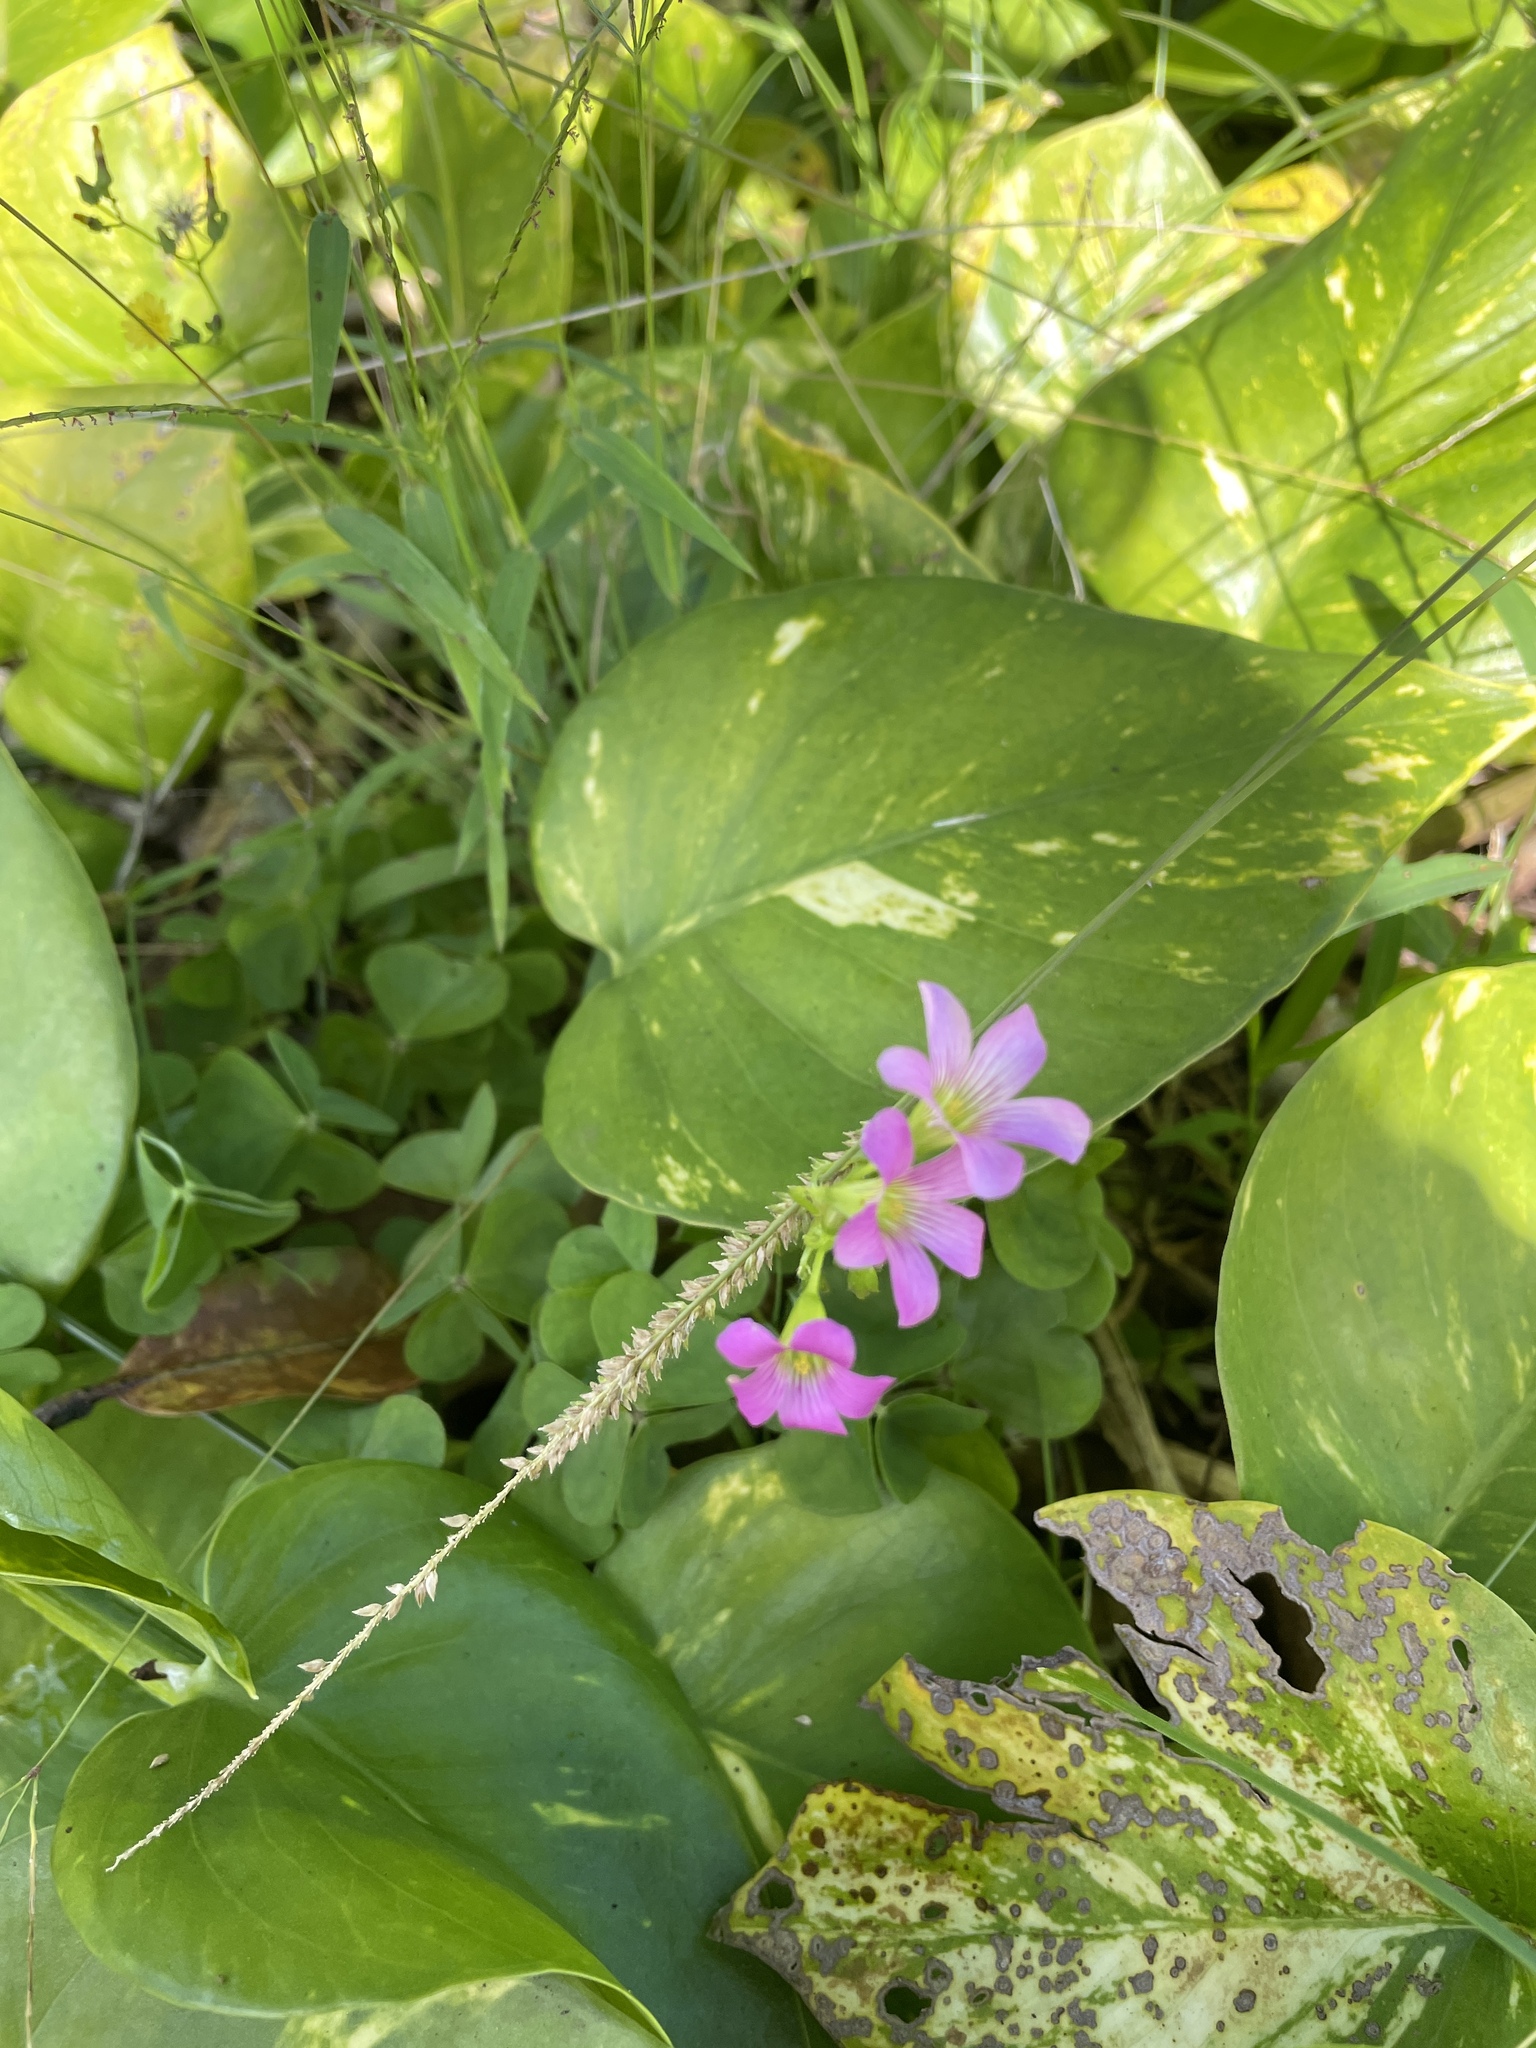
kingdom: Plantae
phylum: Tracheophyta
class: Magnoliopsida
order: Oxalidales
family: Oxalidaceae
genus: Oxalis
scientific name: Oxalis debilis
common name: Large-flowered pink-sorrel
